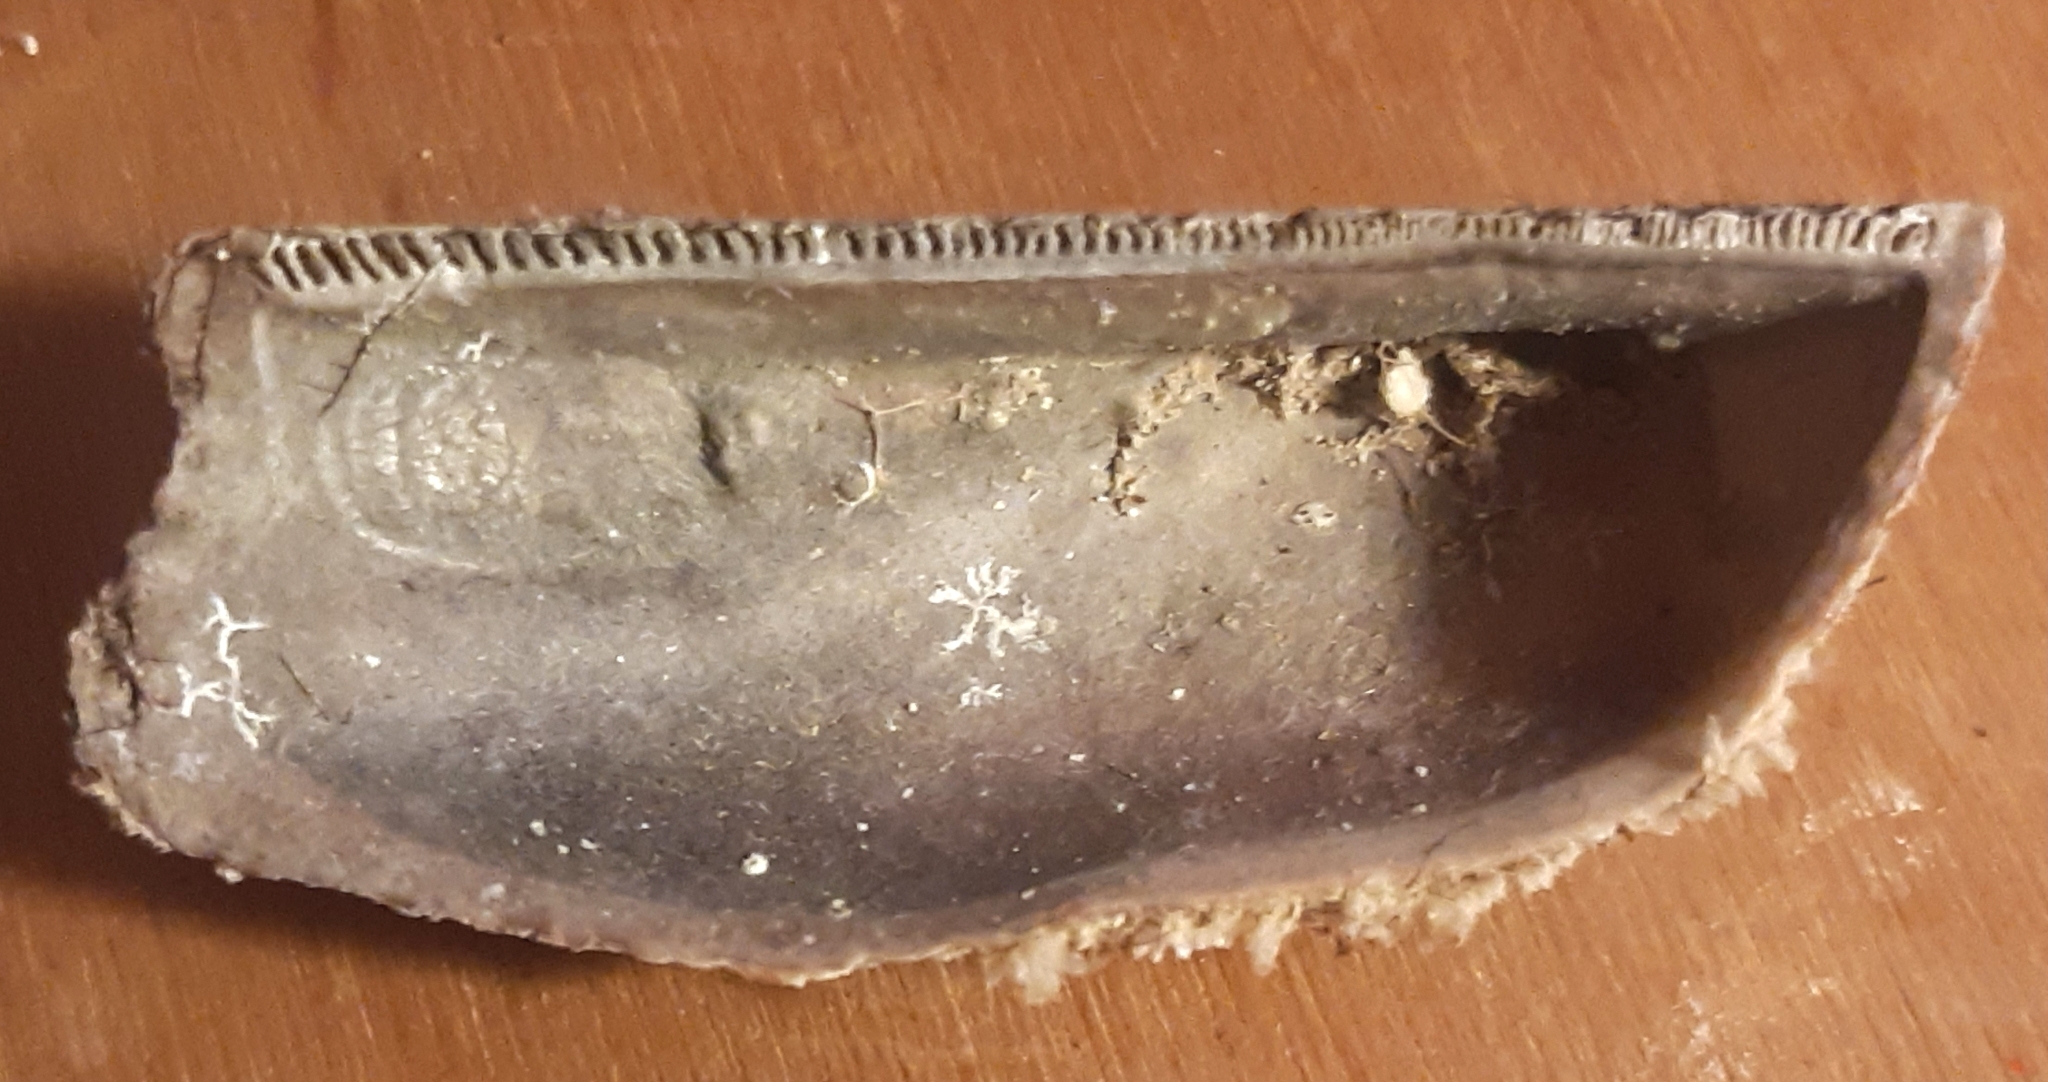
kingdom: Animalia
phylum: Mollusca
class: Bivalvia
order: Arcida
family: Arcidae
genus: Arca
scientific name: Arca noae
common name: Noah's arch
